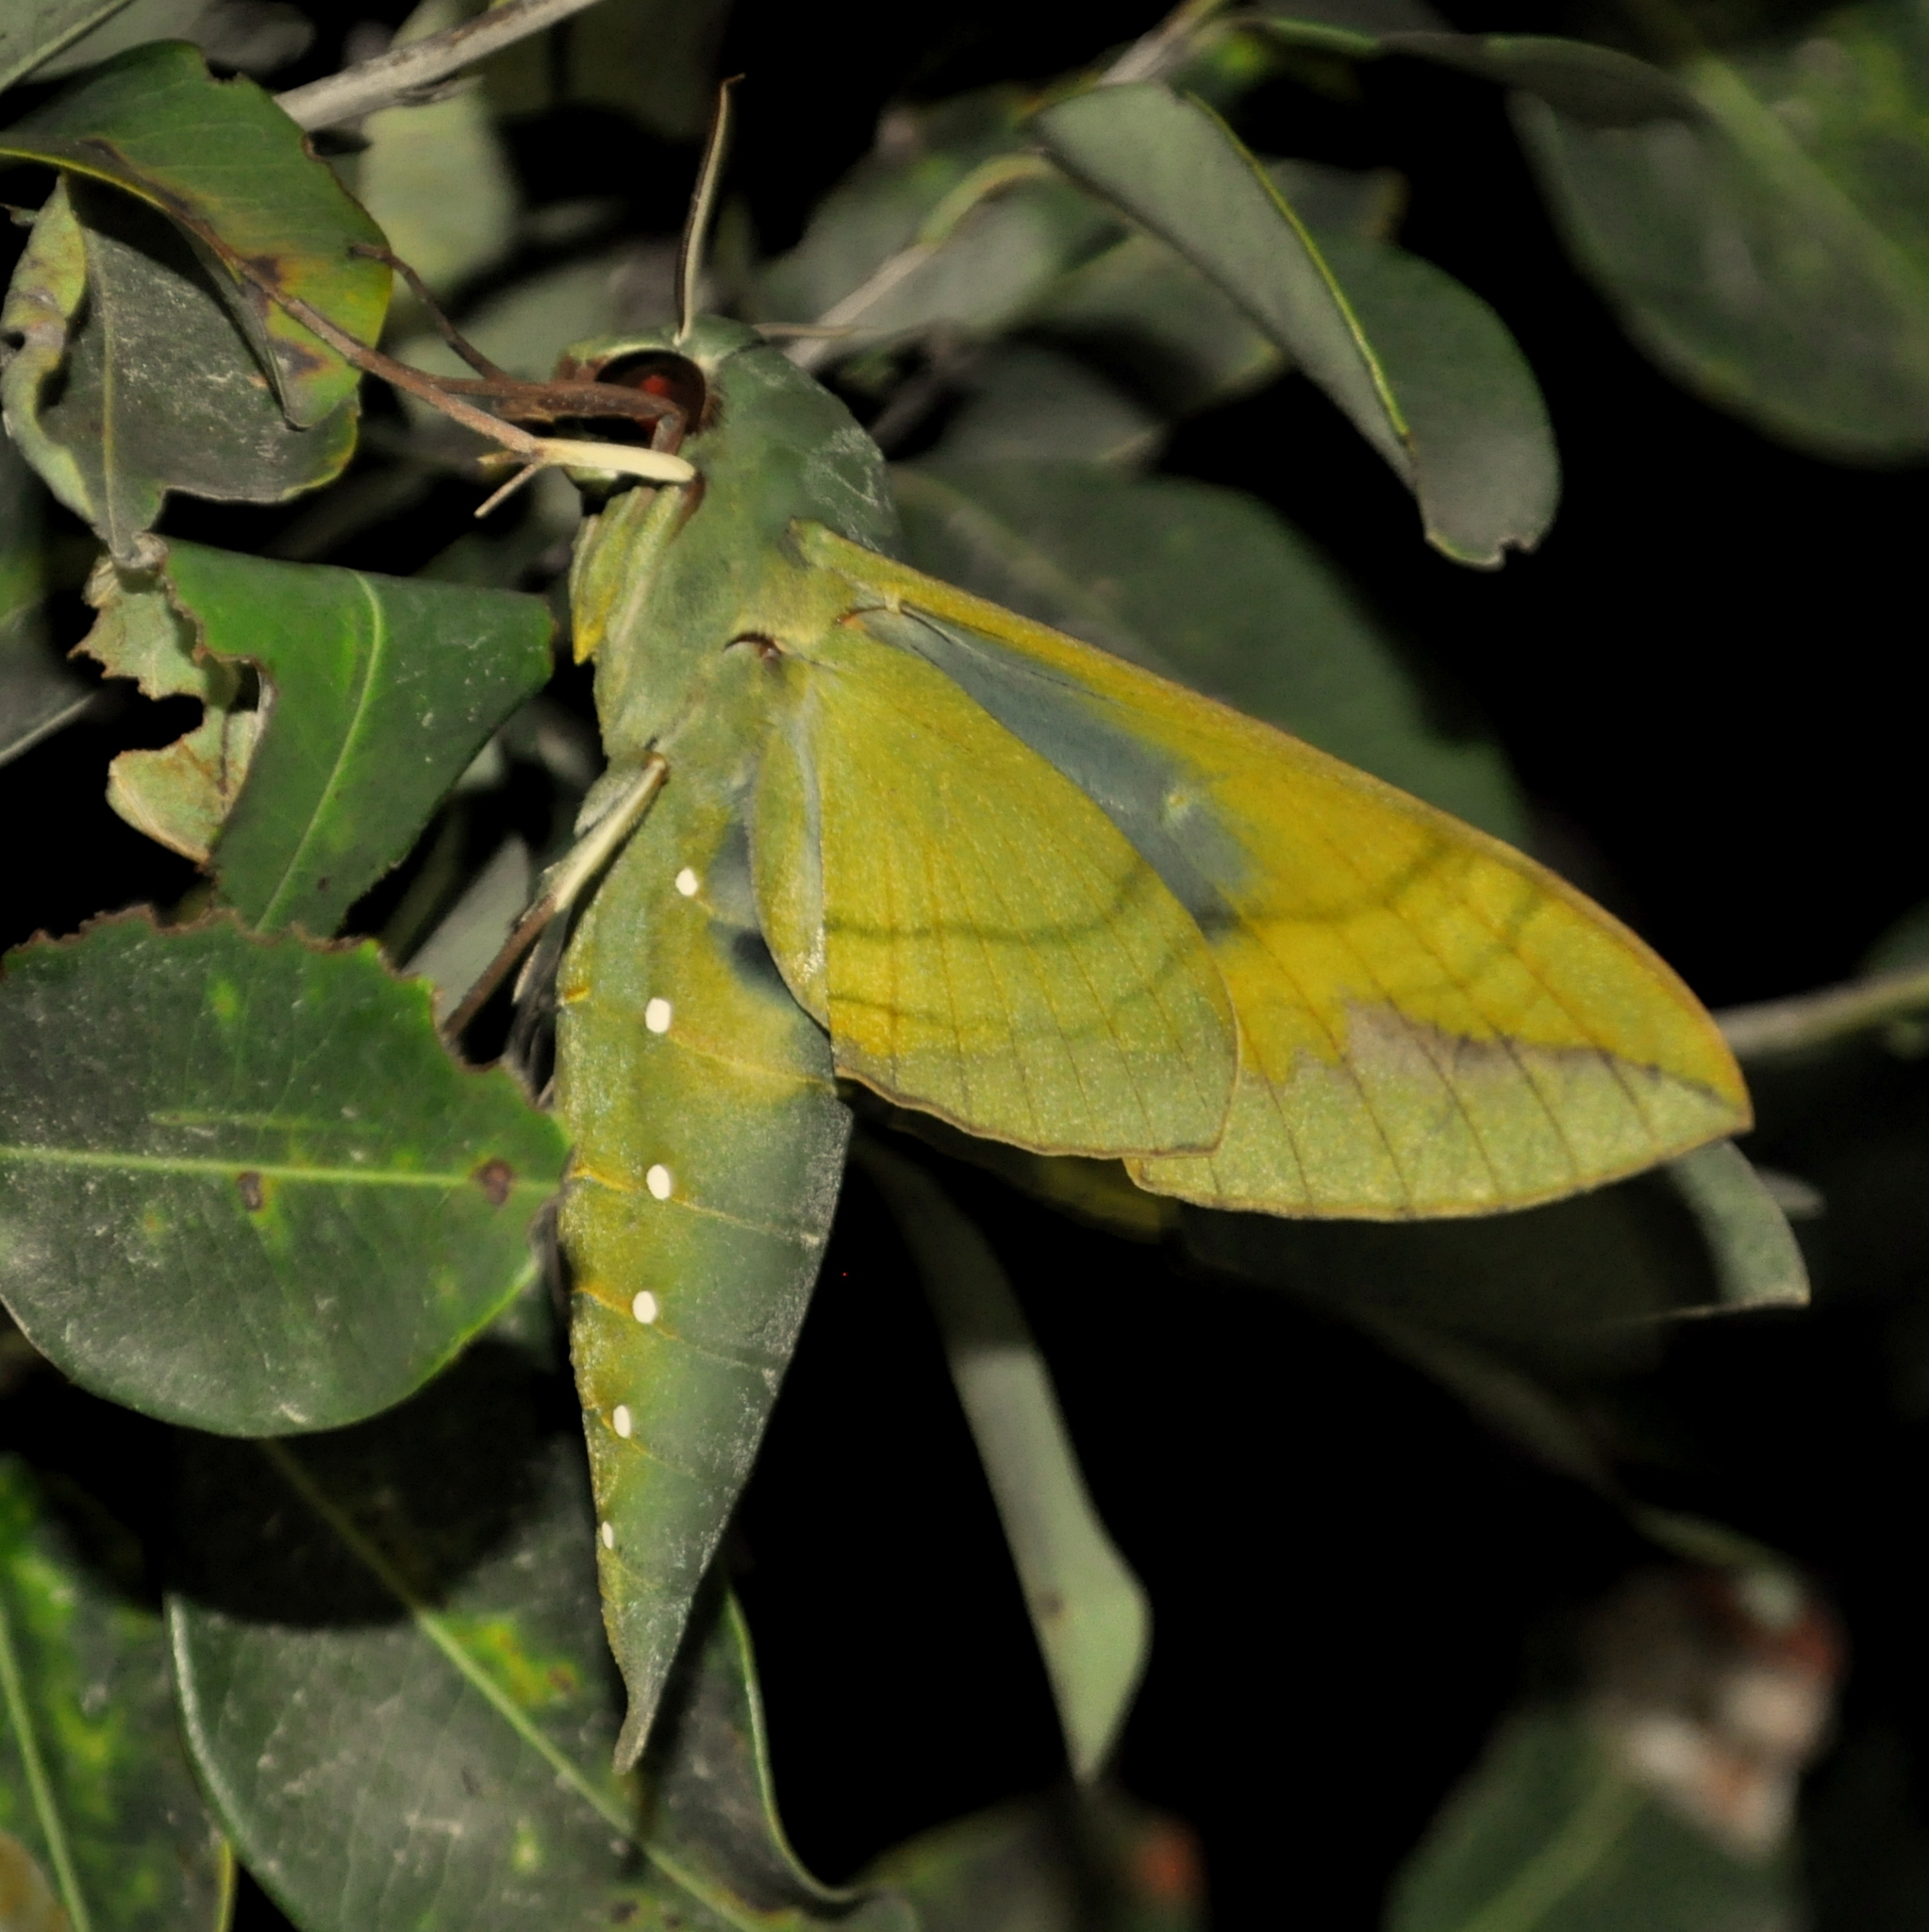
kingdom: Animalia
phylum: Arthropoda
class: Insecta
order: Lepidoptera
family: Sphingidae
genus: Eumorpha
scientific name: Eumorpha labruscae
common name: Gaudy sphinx
